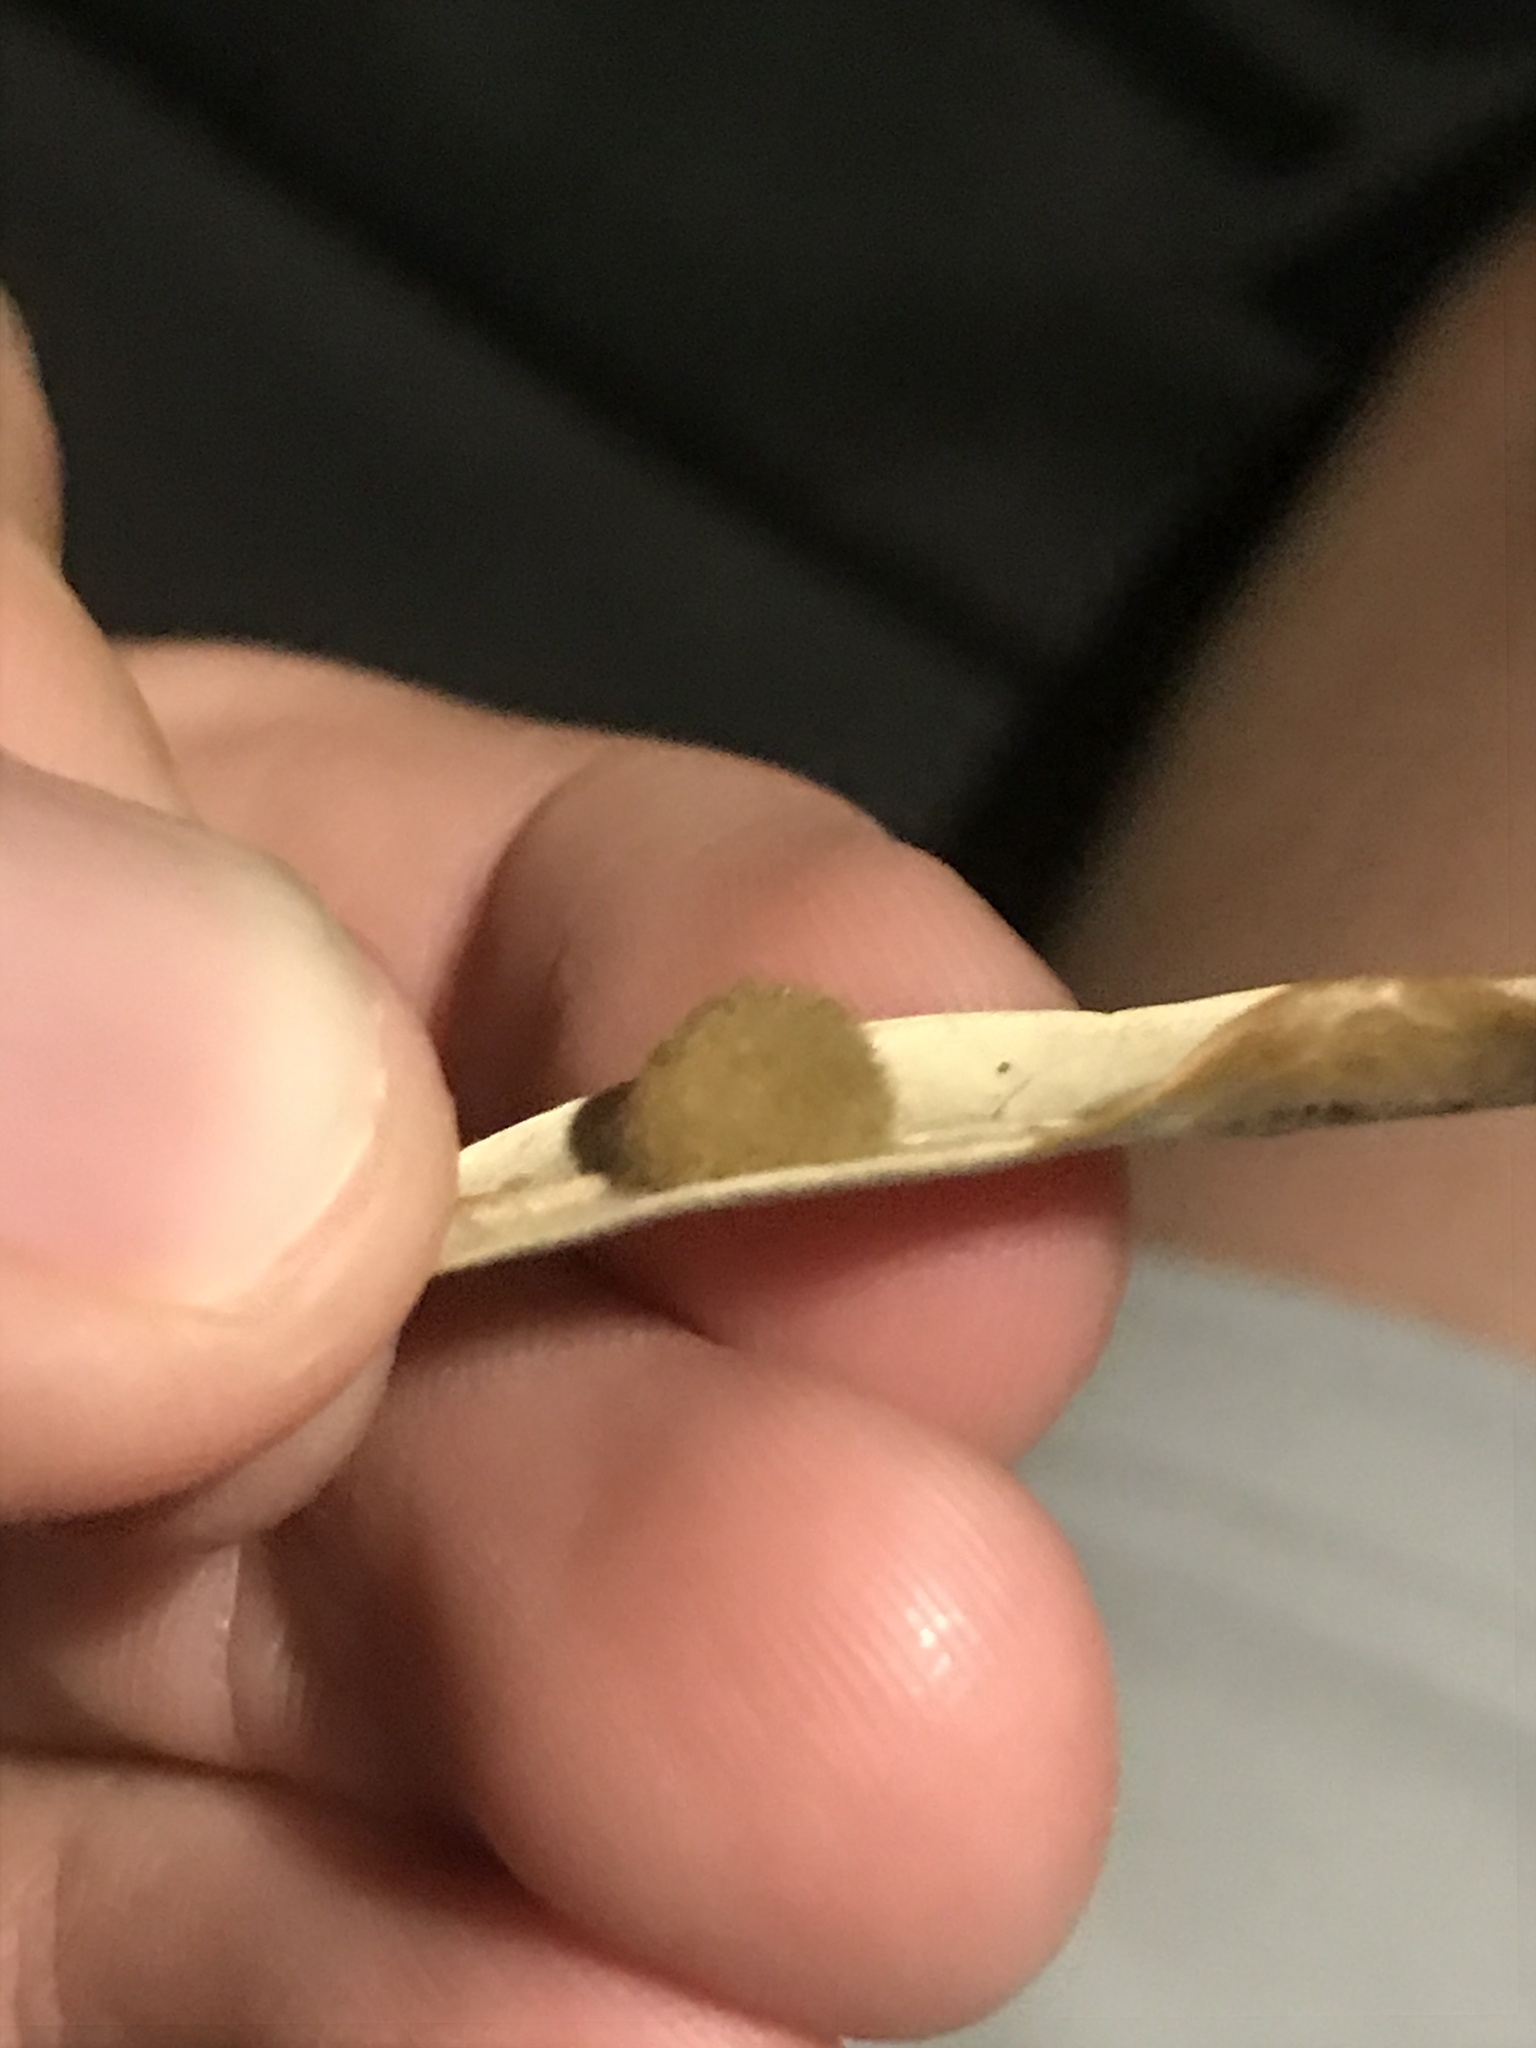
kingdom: Animalia
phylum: Arthropoda
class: Insecta
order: Hymenoptera
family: Cynipidae
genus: Andricus
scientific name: Andricus Druon quercuslanigerum
